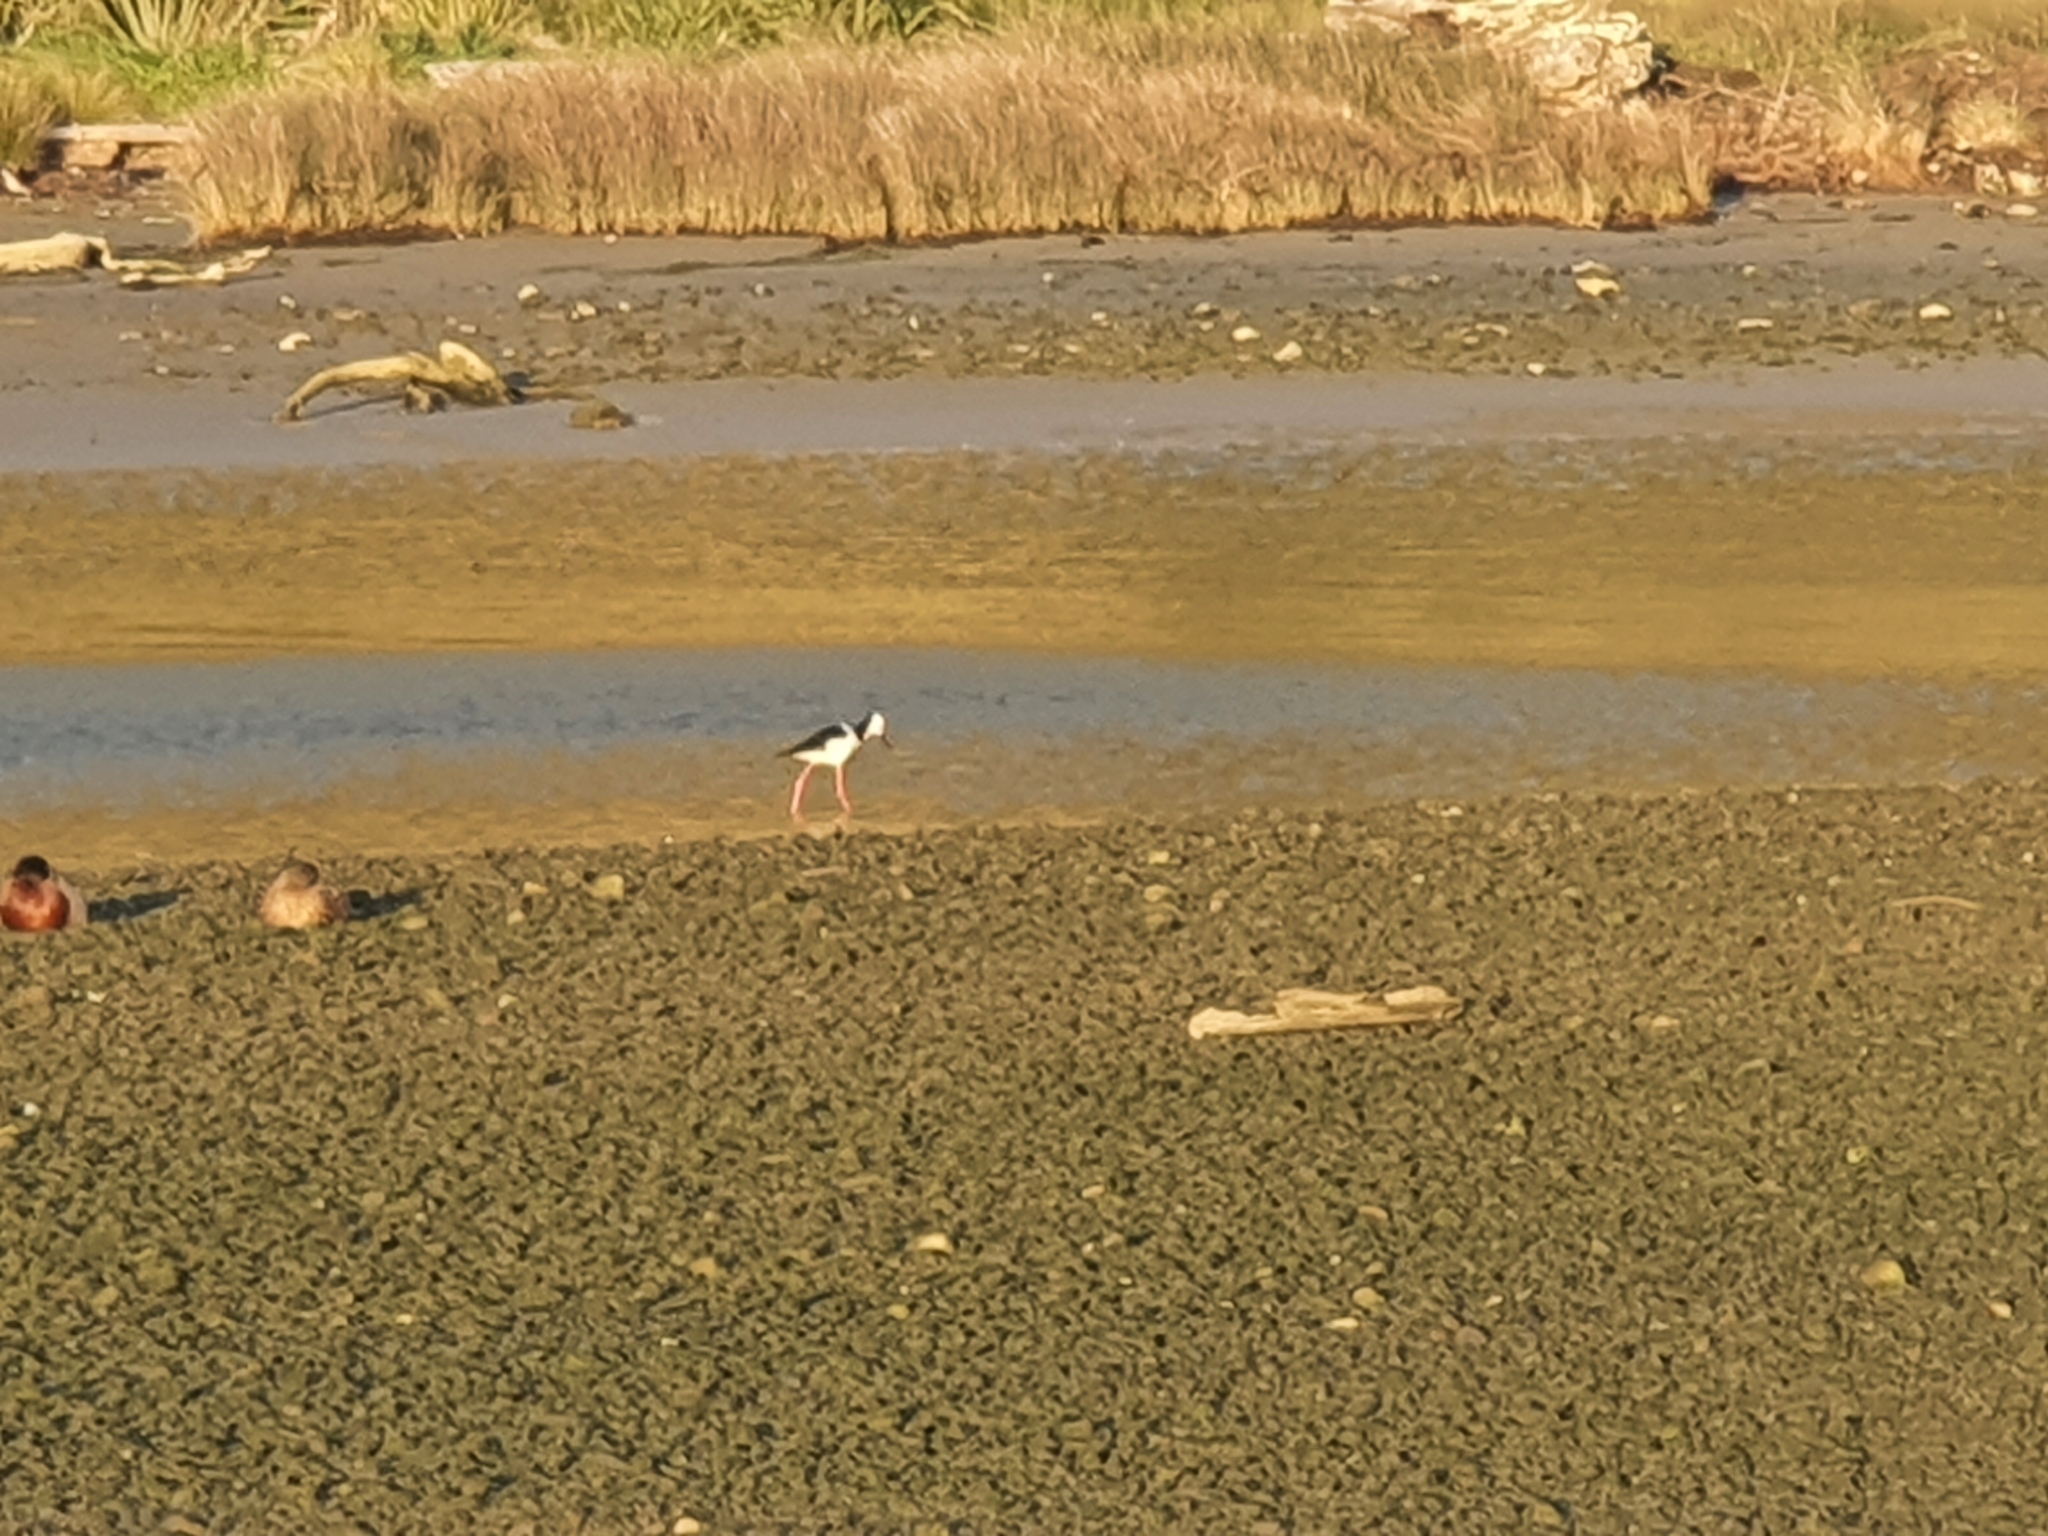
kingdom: Animalia
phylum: Chordata
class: Aves
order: Charadriiformes
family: Recurvirostridae
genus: Himantopus
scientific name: Himantopus leucocephalus
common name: White-headed stilt
